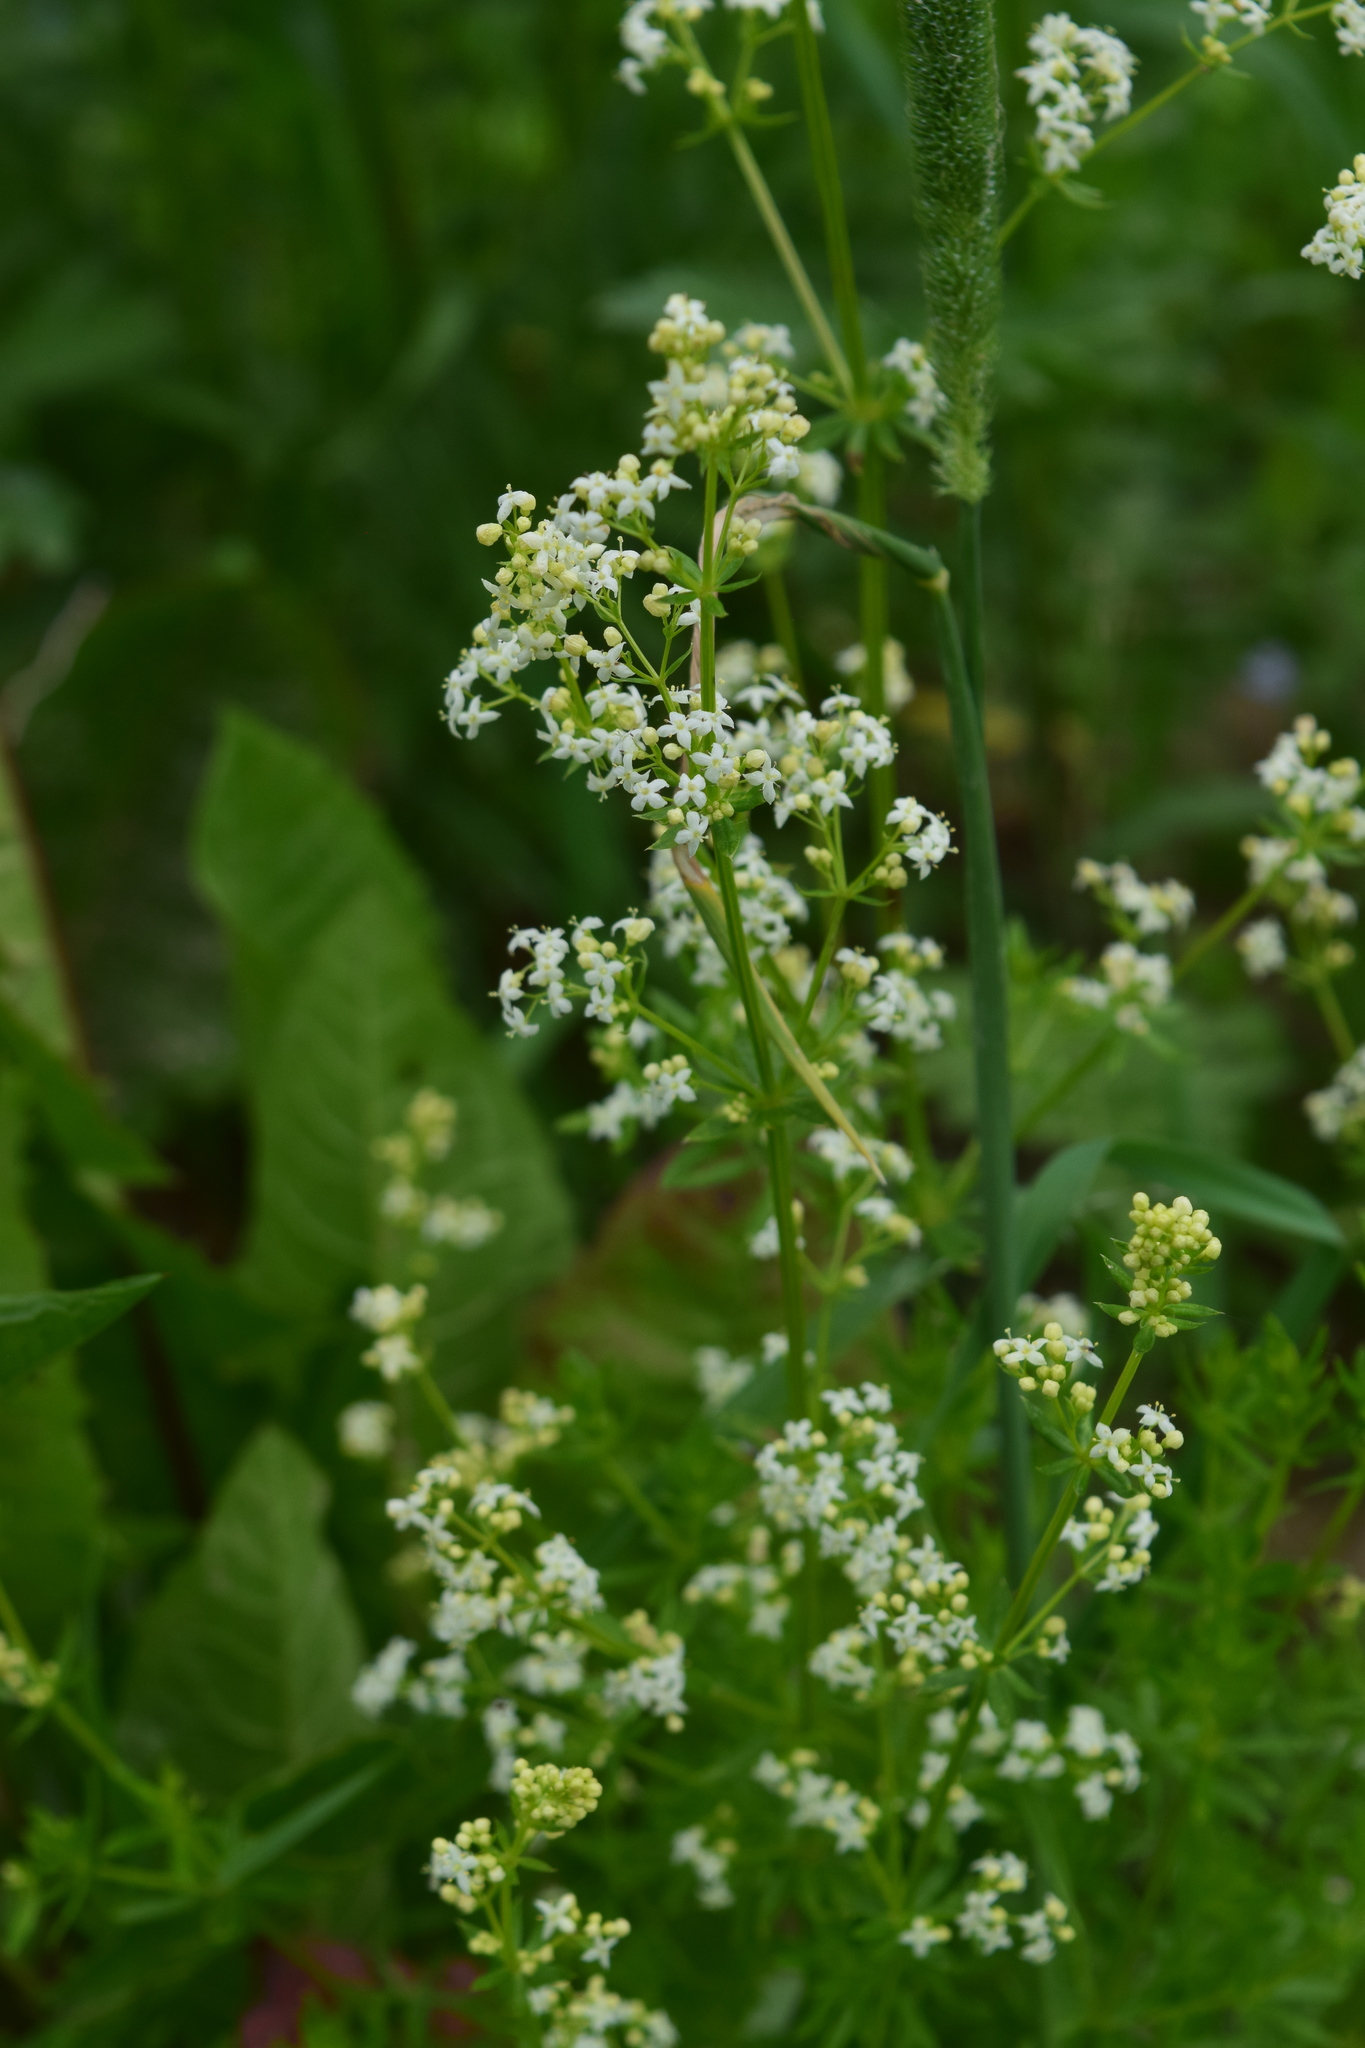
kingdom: Plantae
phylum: Tracheophyta
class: Magnoliopsida
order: Gentianales
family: Rubiaceae
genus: Galium
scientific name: Galium mollugo
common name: Hedge bedstraw
